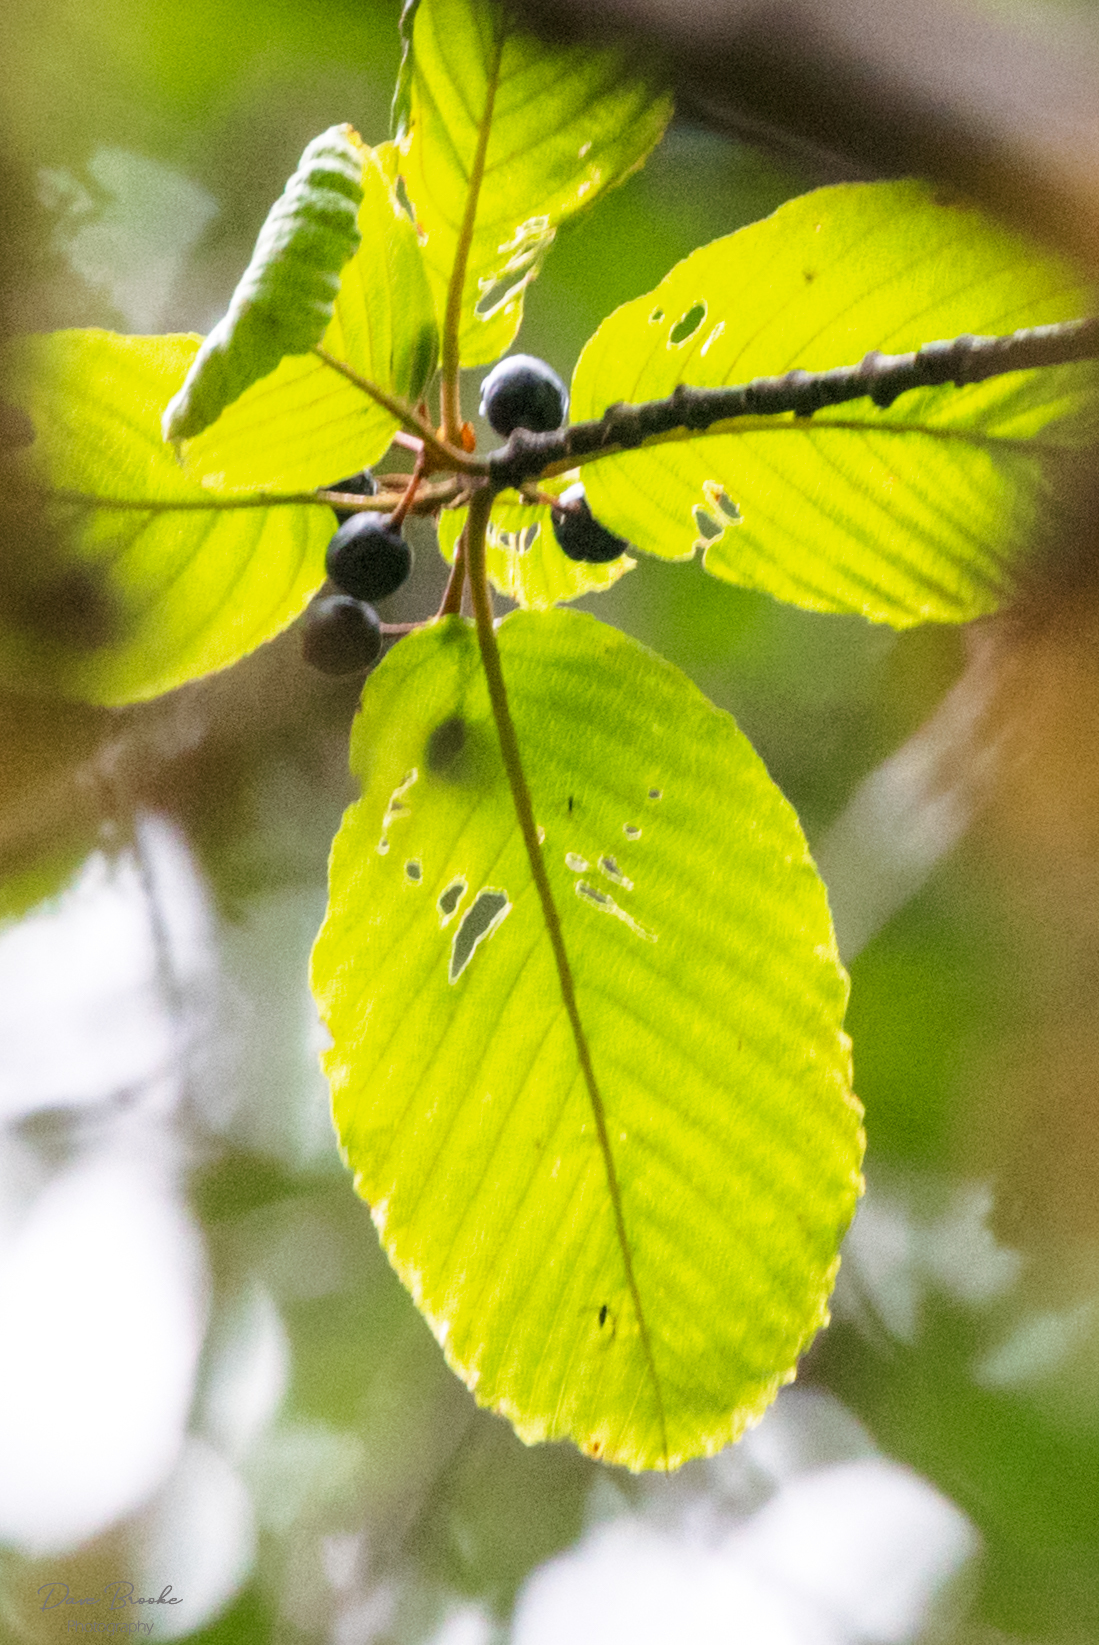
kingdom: Plantae
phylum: Tracheophyta
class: Magnoliopsida
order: Rosales
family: Rhamnaceae
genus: Frangula
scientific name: Frangula purshiana
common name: Cascara buckthorn
